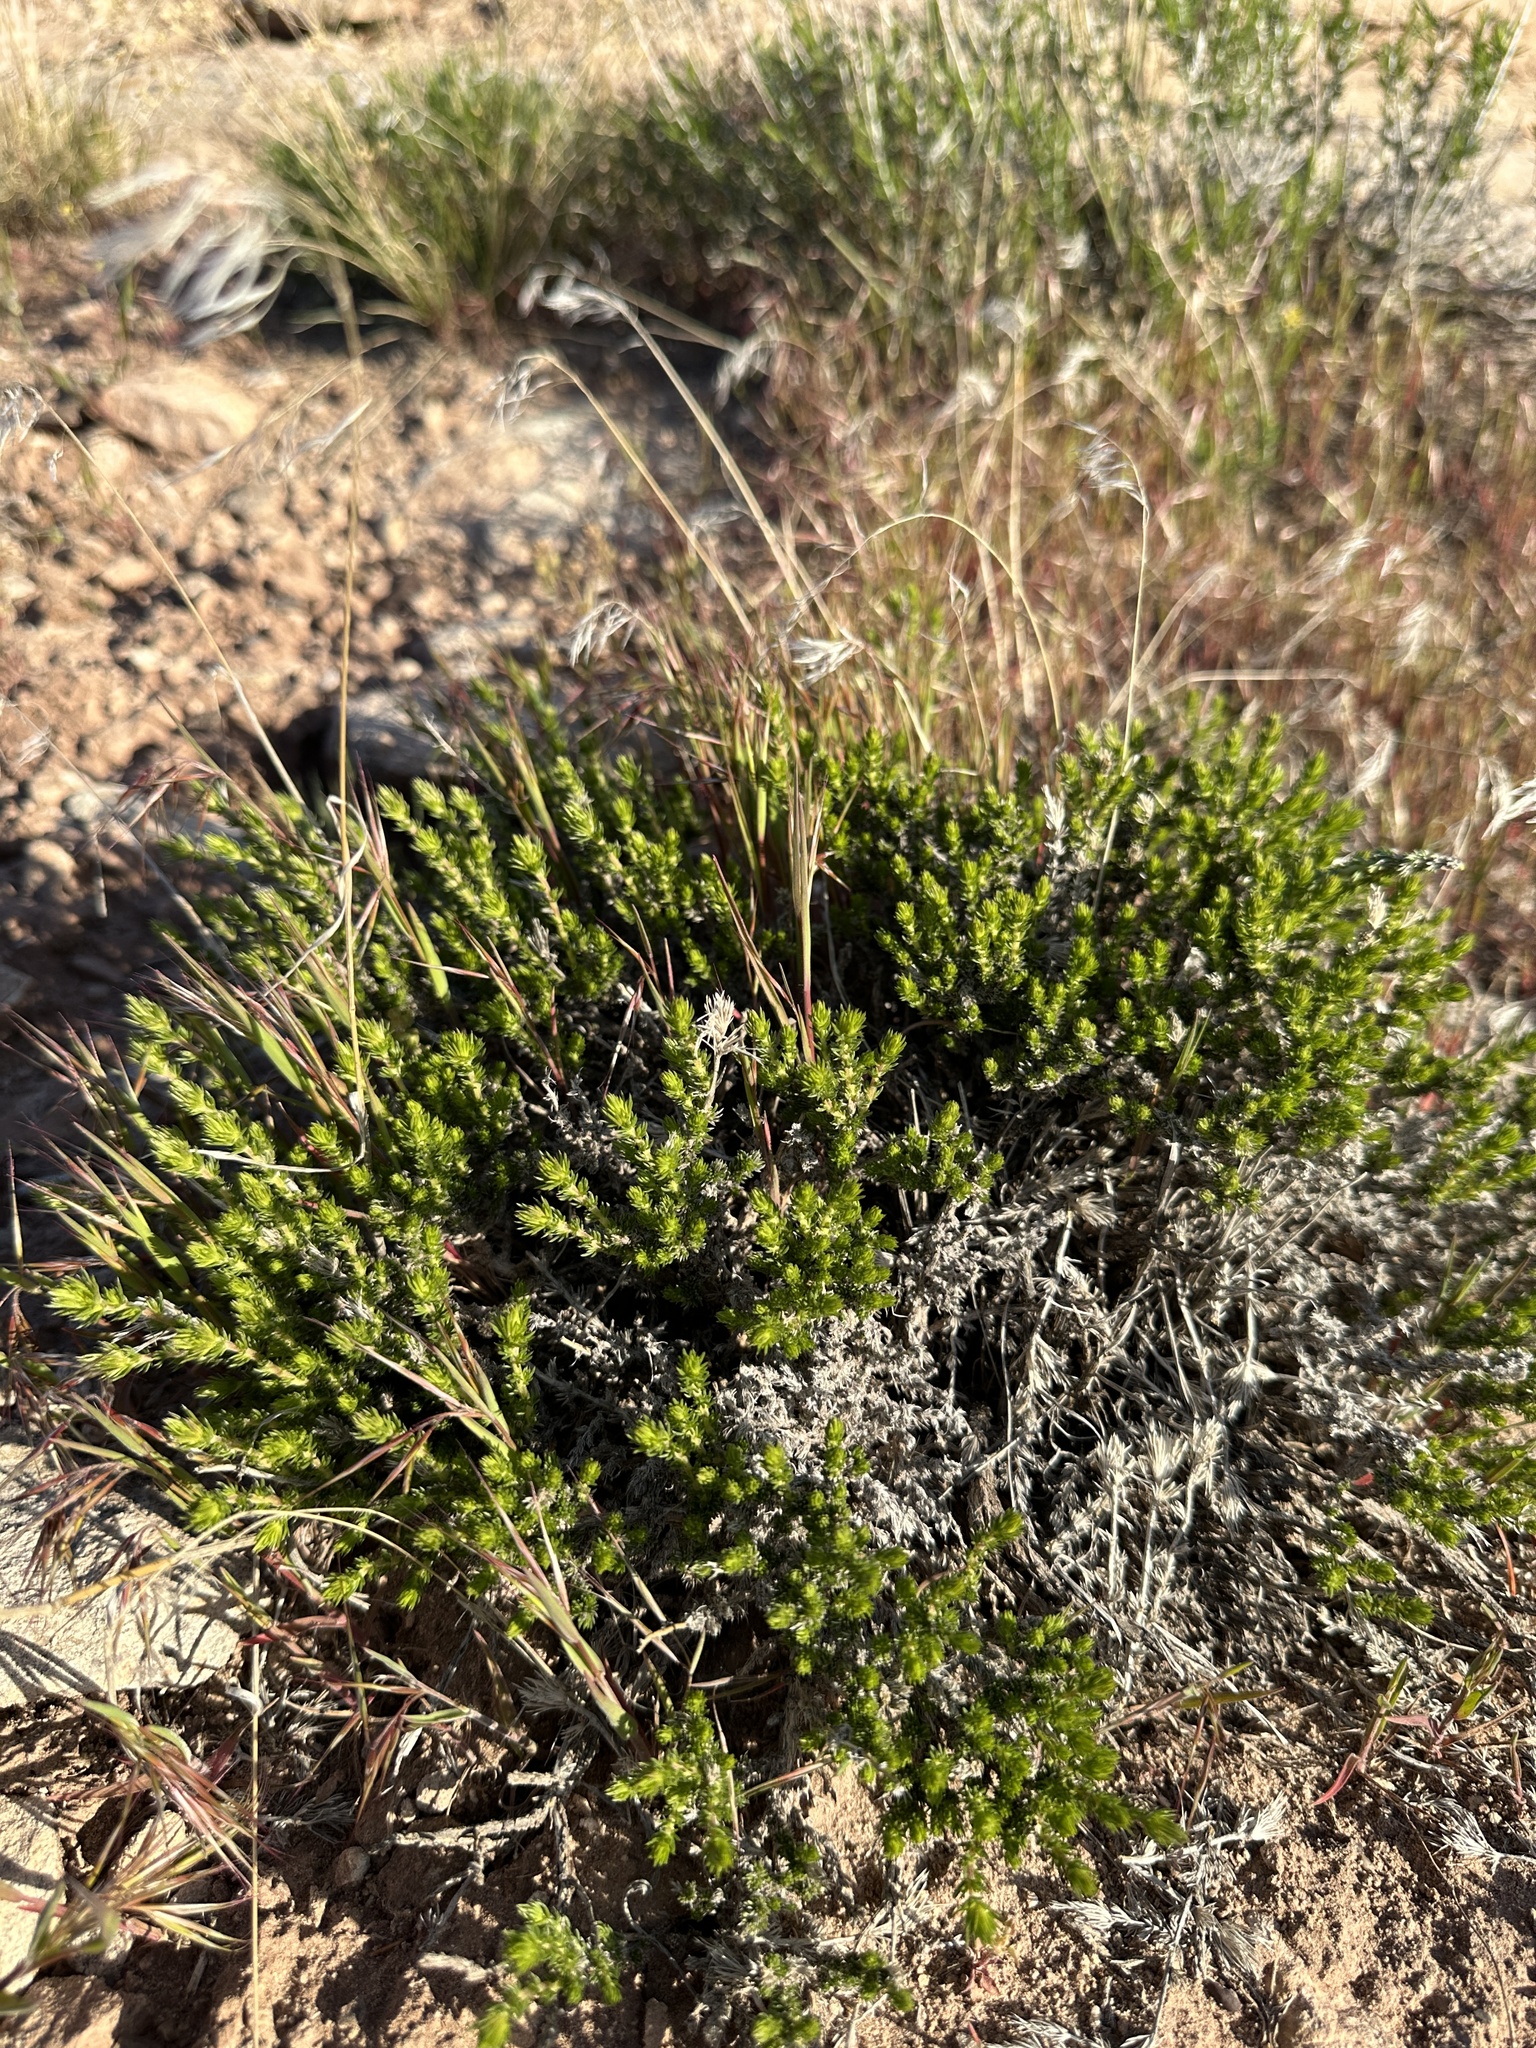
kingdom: Plantae
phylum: Tracheophyta
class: Magnoliopsida
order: Ericales
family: Polemoniaceae
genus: Linanthus
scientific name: Linanthus pungens
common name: Granite prickly phlox
